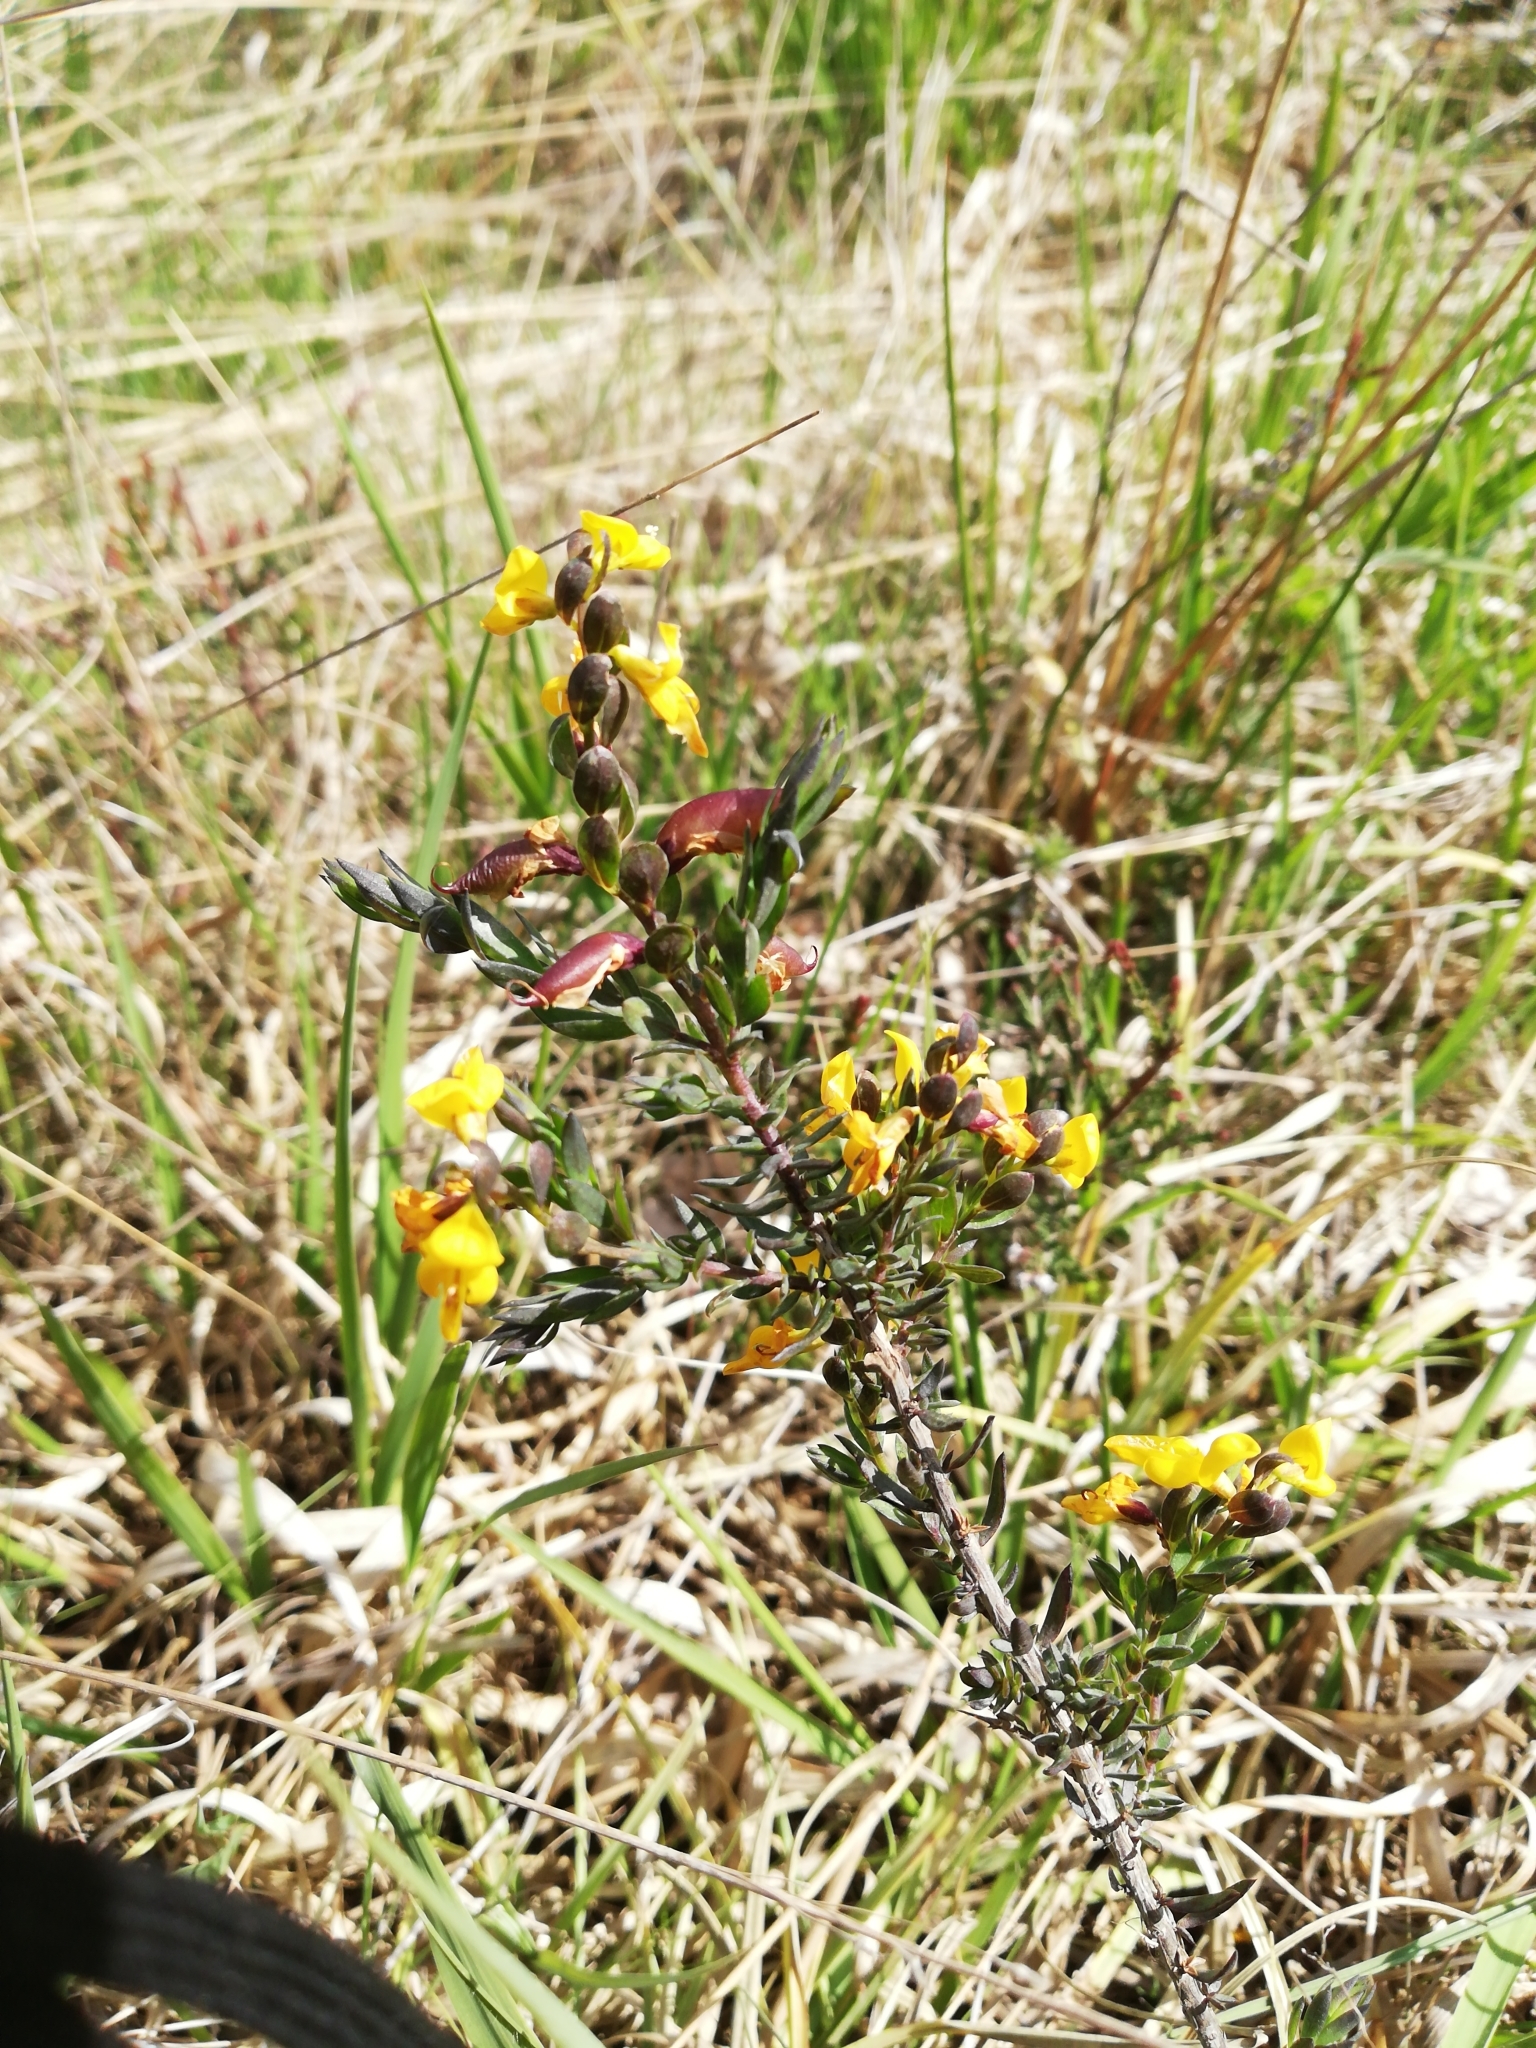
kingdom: Plantae
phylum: Tracheophyta
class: Magnoliopsida
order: Fabales
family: Fabaceae
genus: Genista
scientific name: Genista anglica
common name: Petty whin
